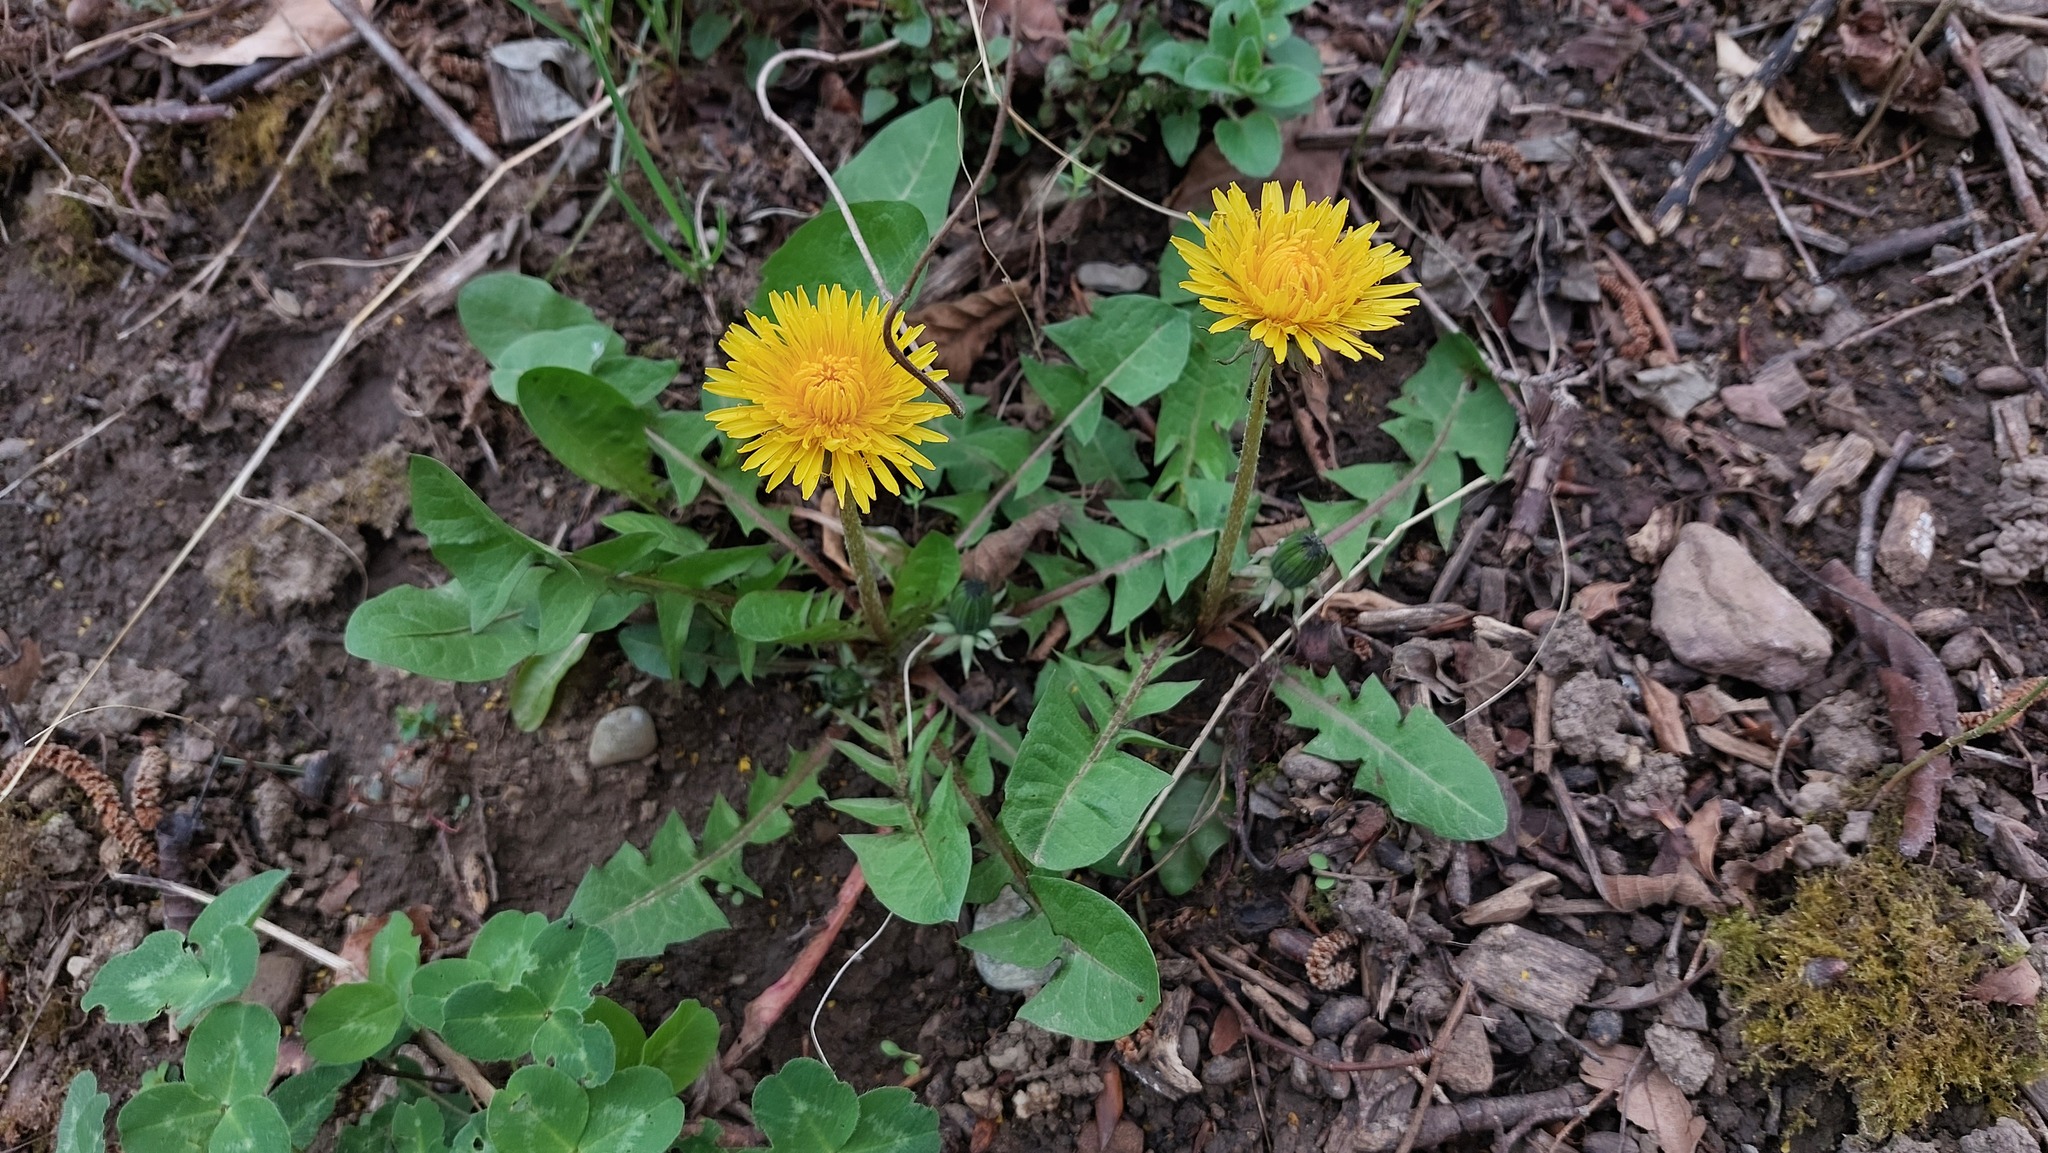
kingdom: Plantae
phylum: Tracheophyta
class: Magnoliopsida
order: Asterales
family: Asteraceae
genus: Taraxacum
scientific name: Taraxacum officinale
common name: Common dandelion
